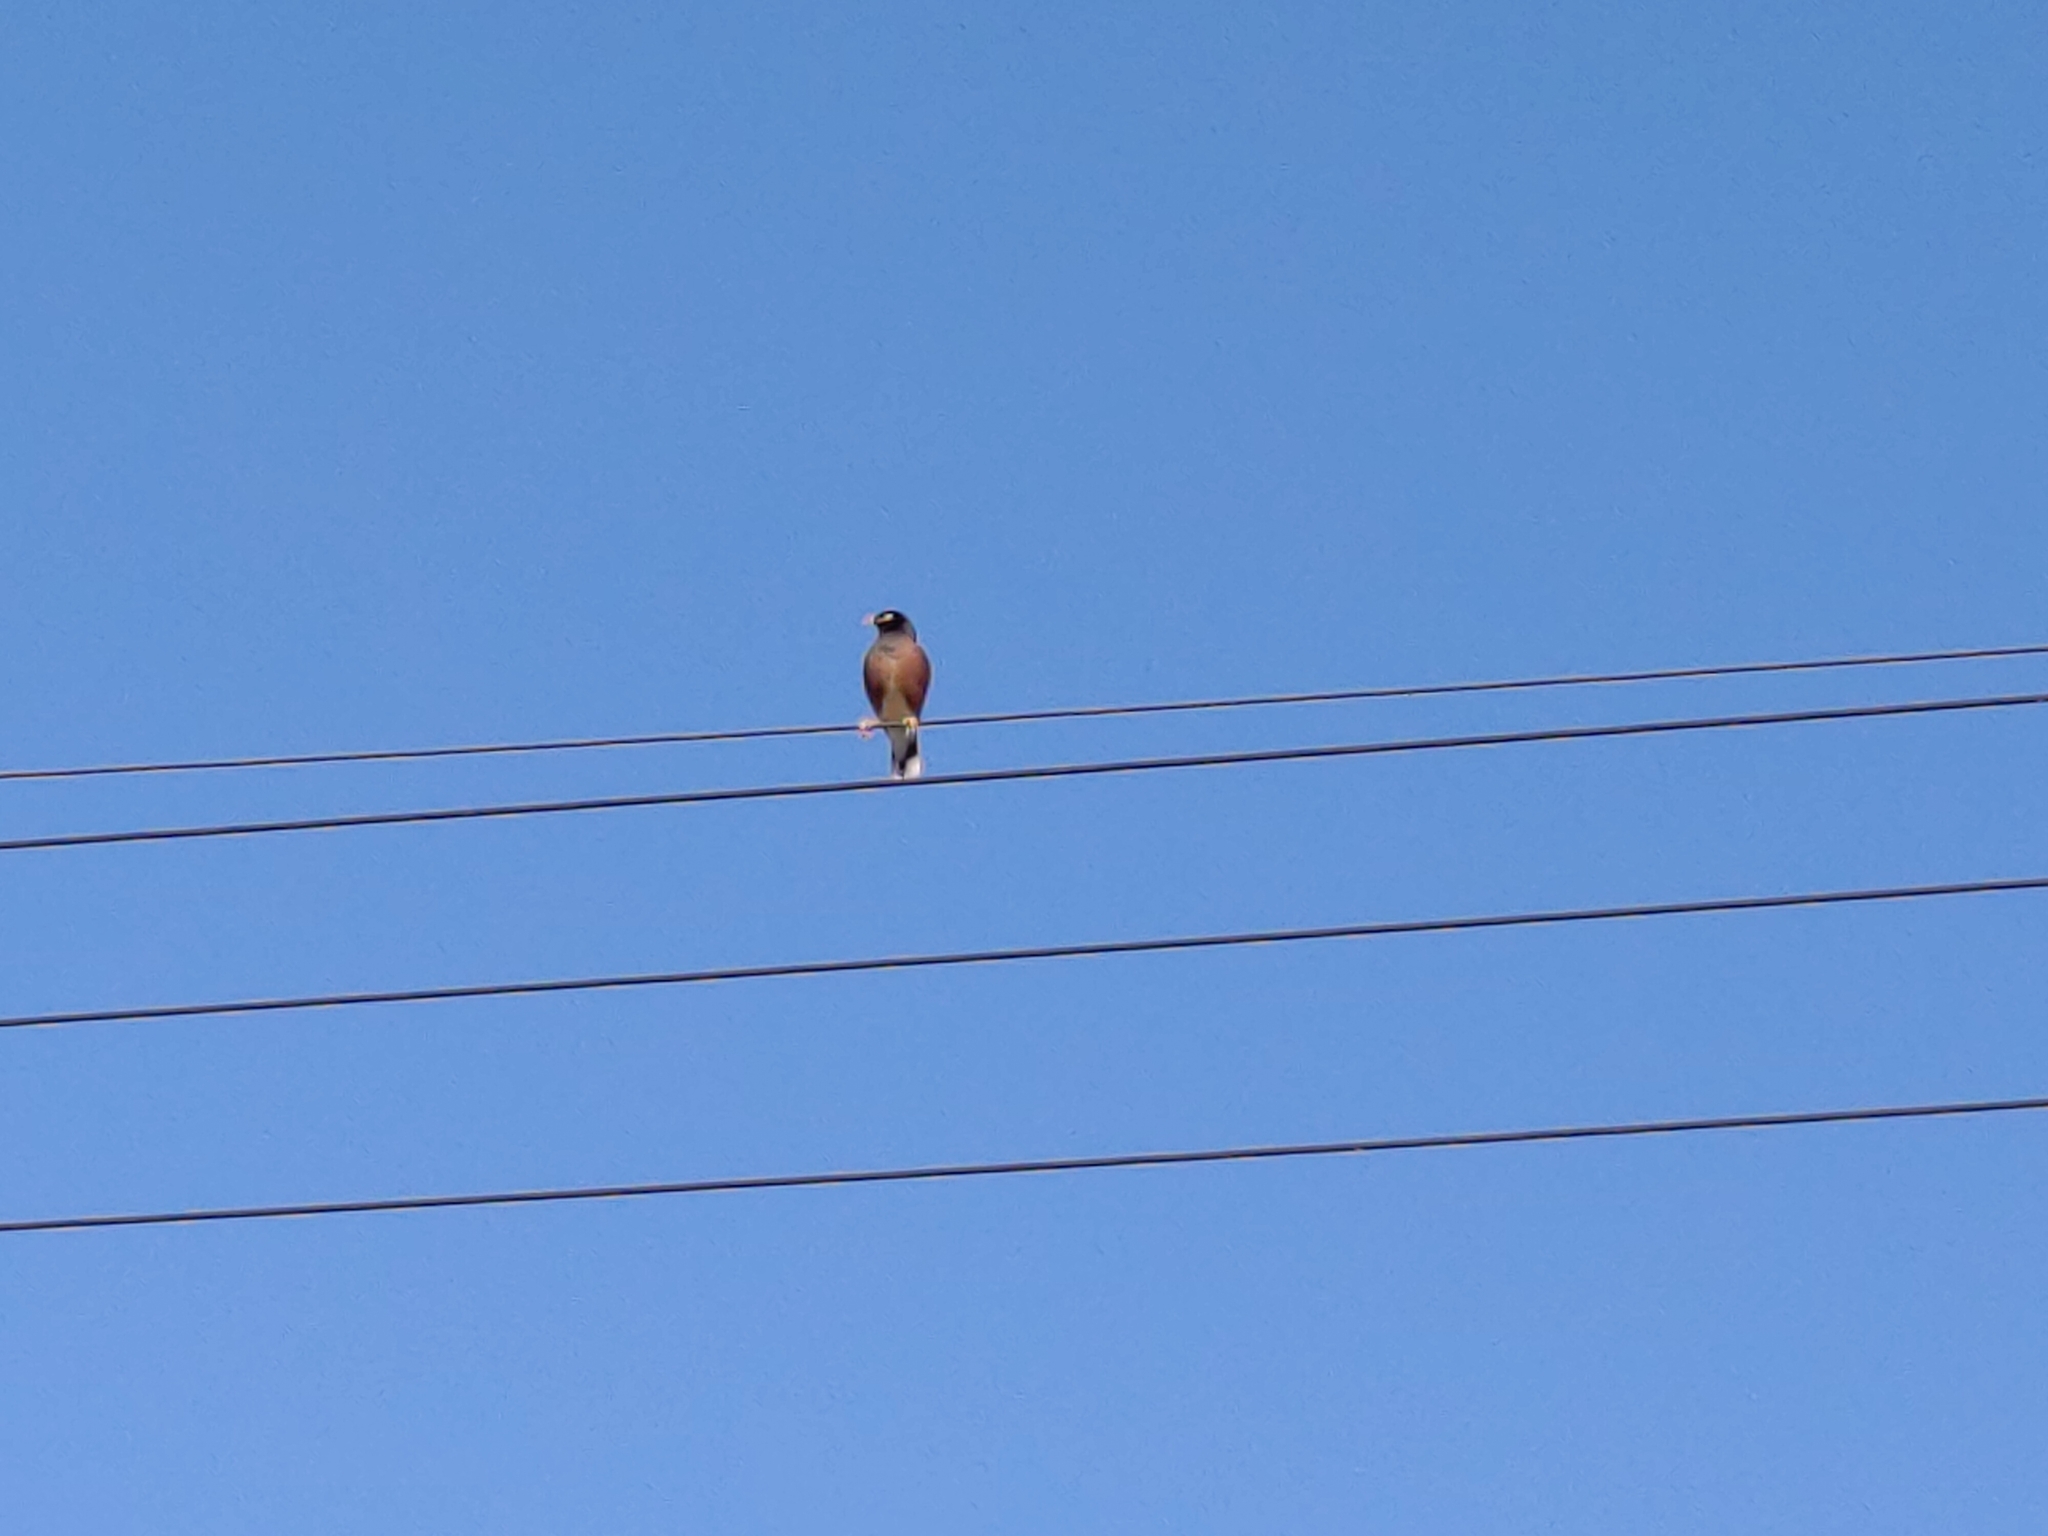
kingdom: Animalia
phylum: Chordata
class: Aves
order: Passeriformes
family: Sturnidae
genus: Acridotheres
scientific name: Acridotheres tristis
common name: Common myna
